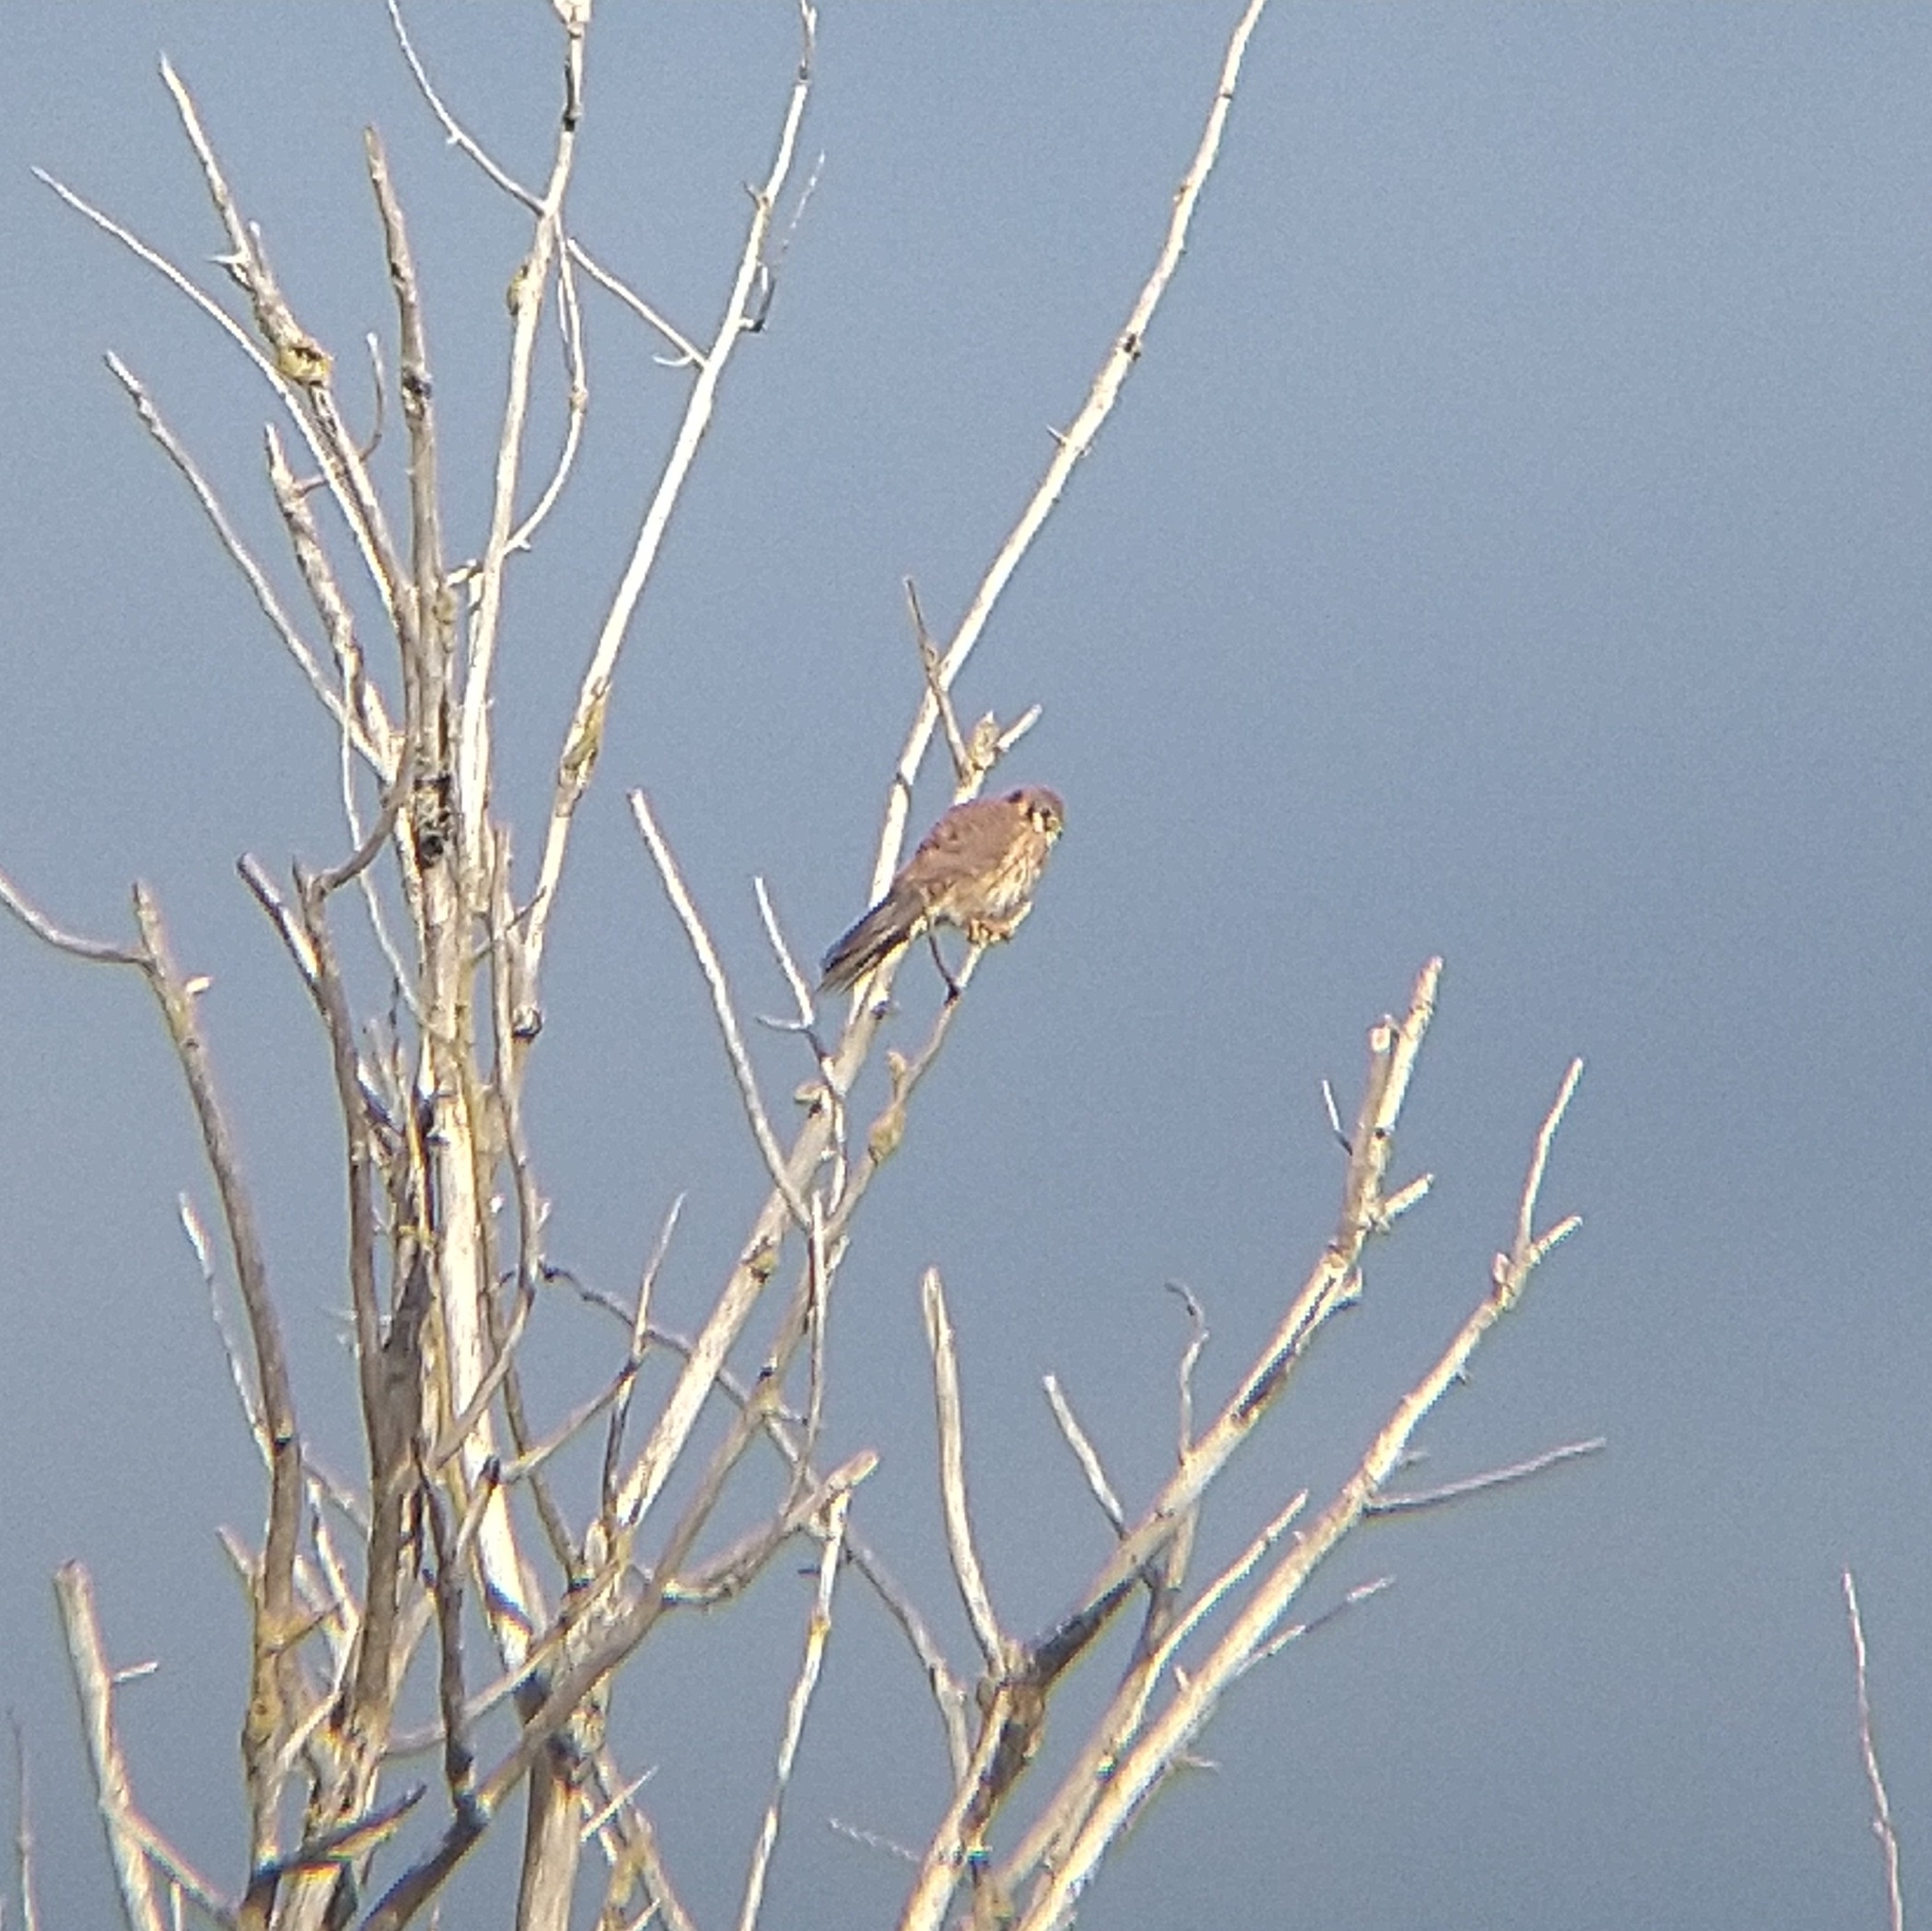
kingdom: Animalia
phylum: Chordata
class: Aves
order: Falconiformes
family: Falconidae
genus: Falco
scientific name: Falco sparverius
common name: American kestrel
